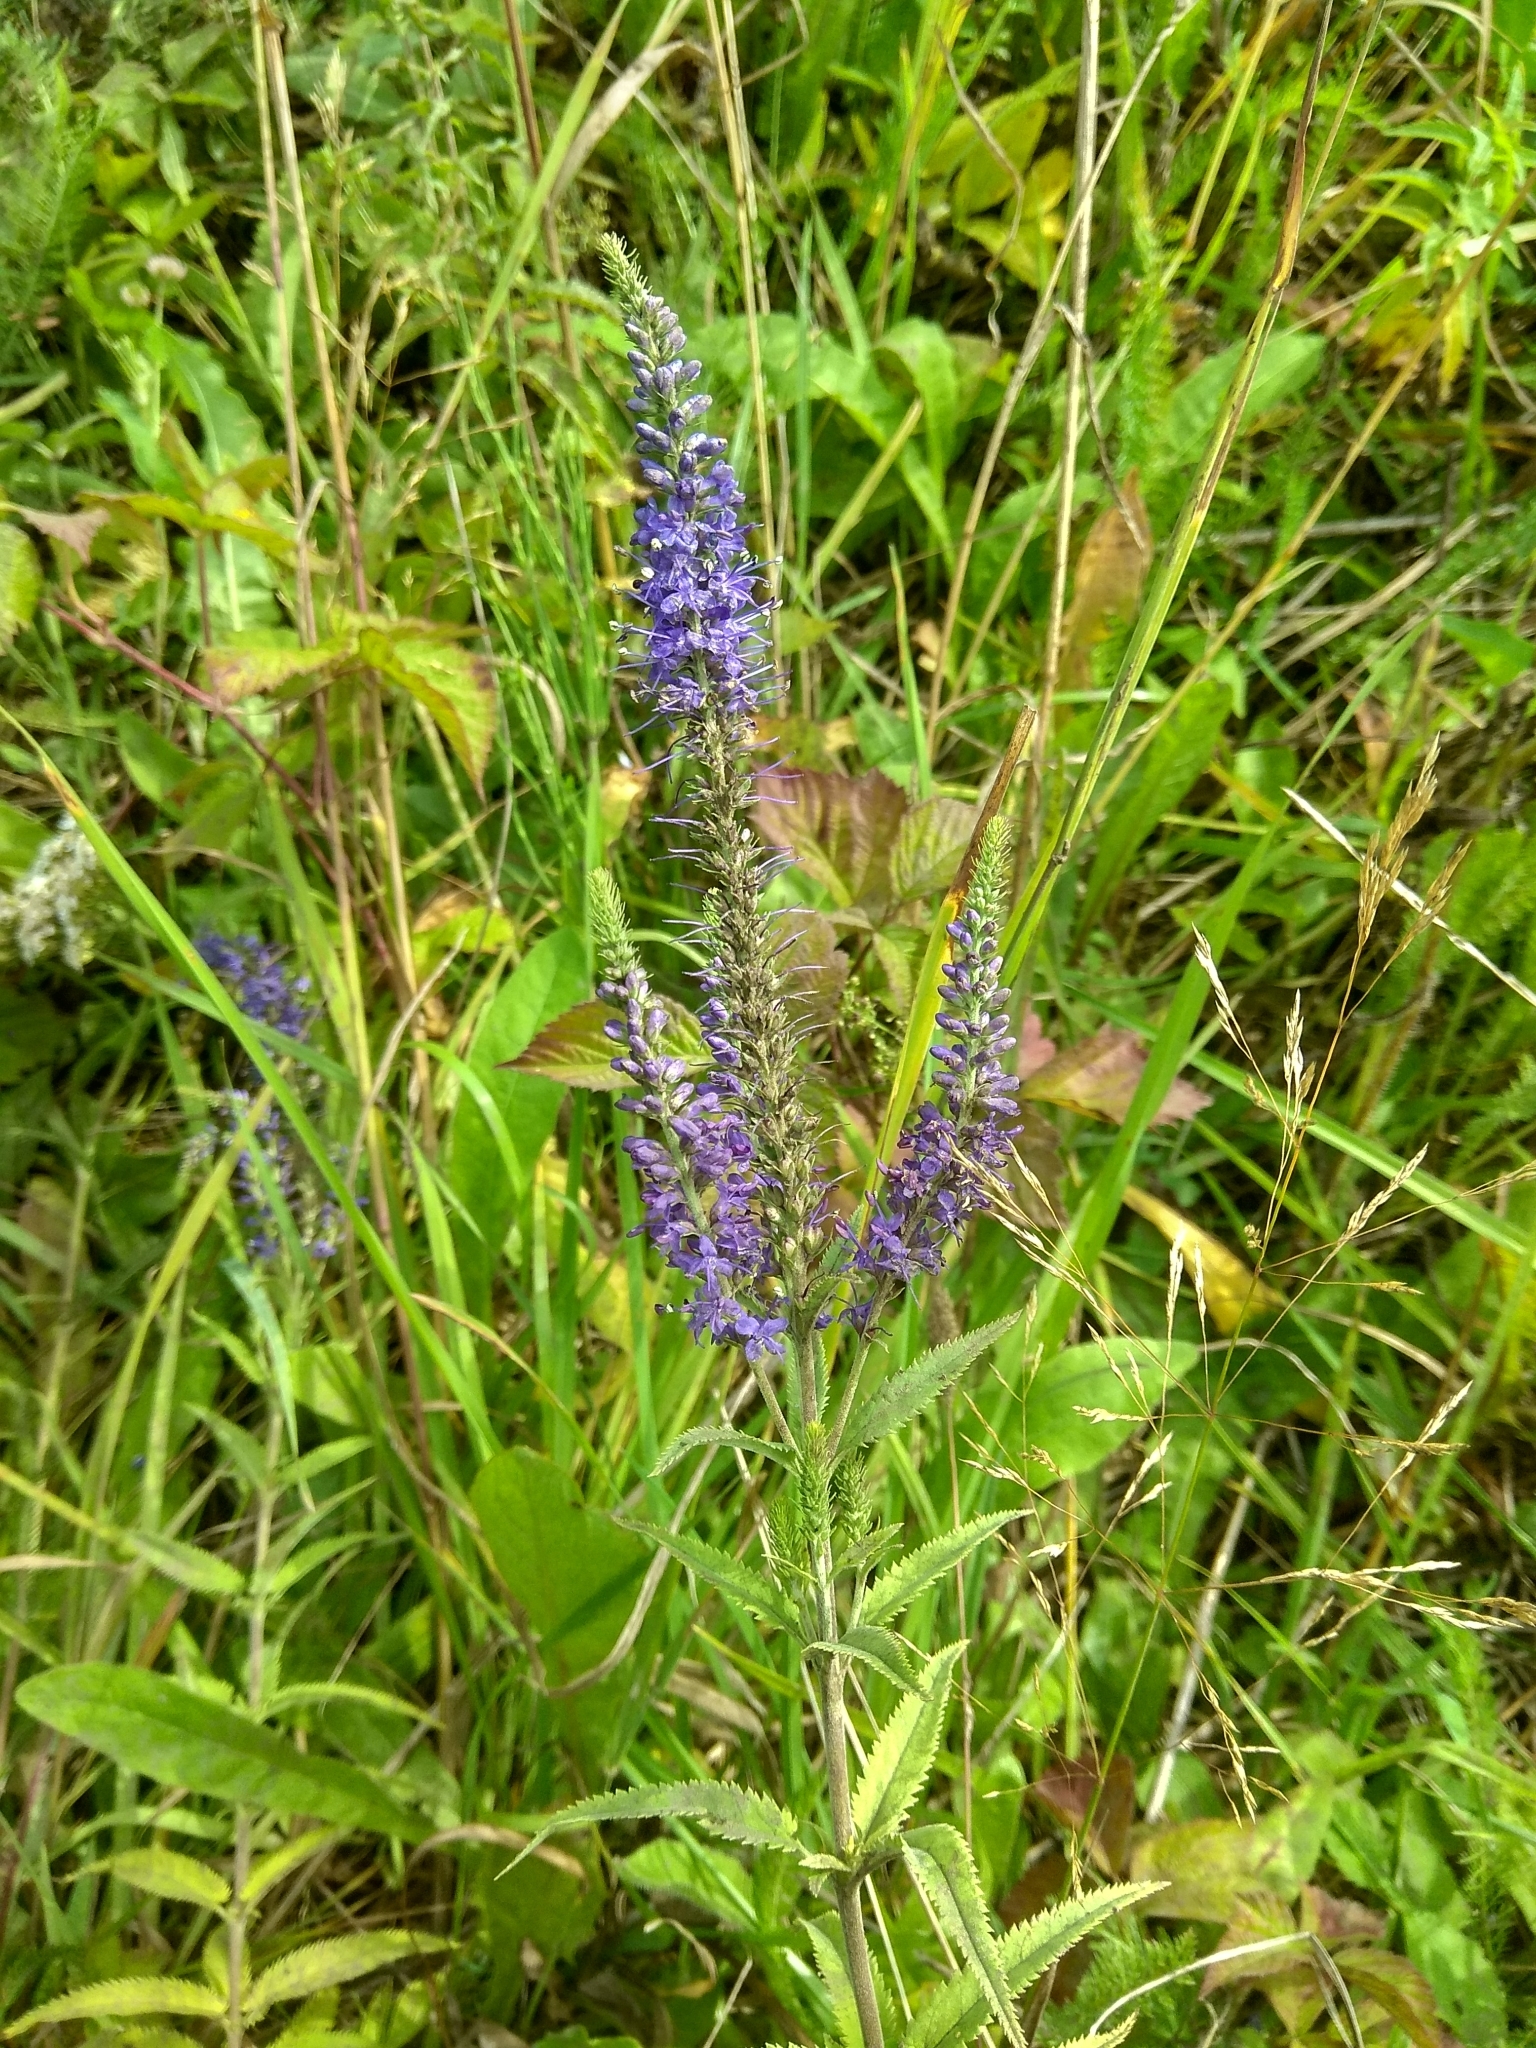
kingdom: Plantae
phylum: Tracheophyta
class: Magnoliopsida
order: Lamiales
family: Plantaginaceae
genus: Veronica
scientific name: Veronica longifolia
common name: Garden speedwell
